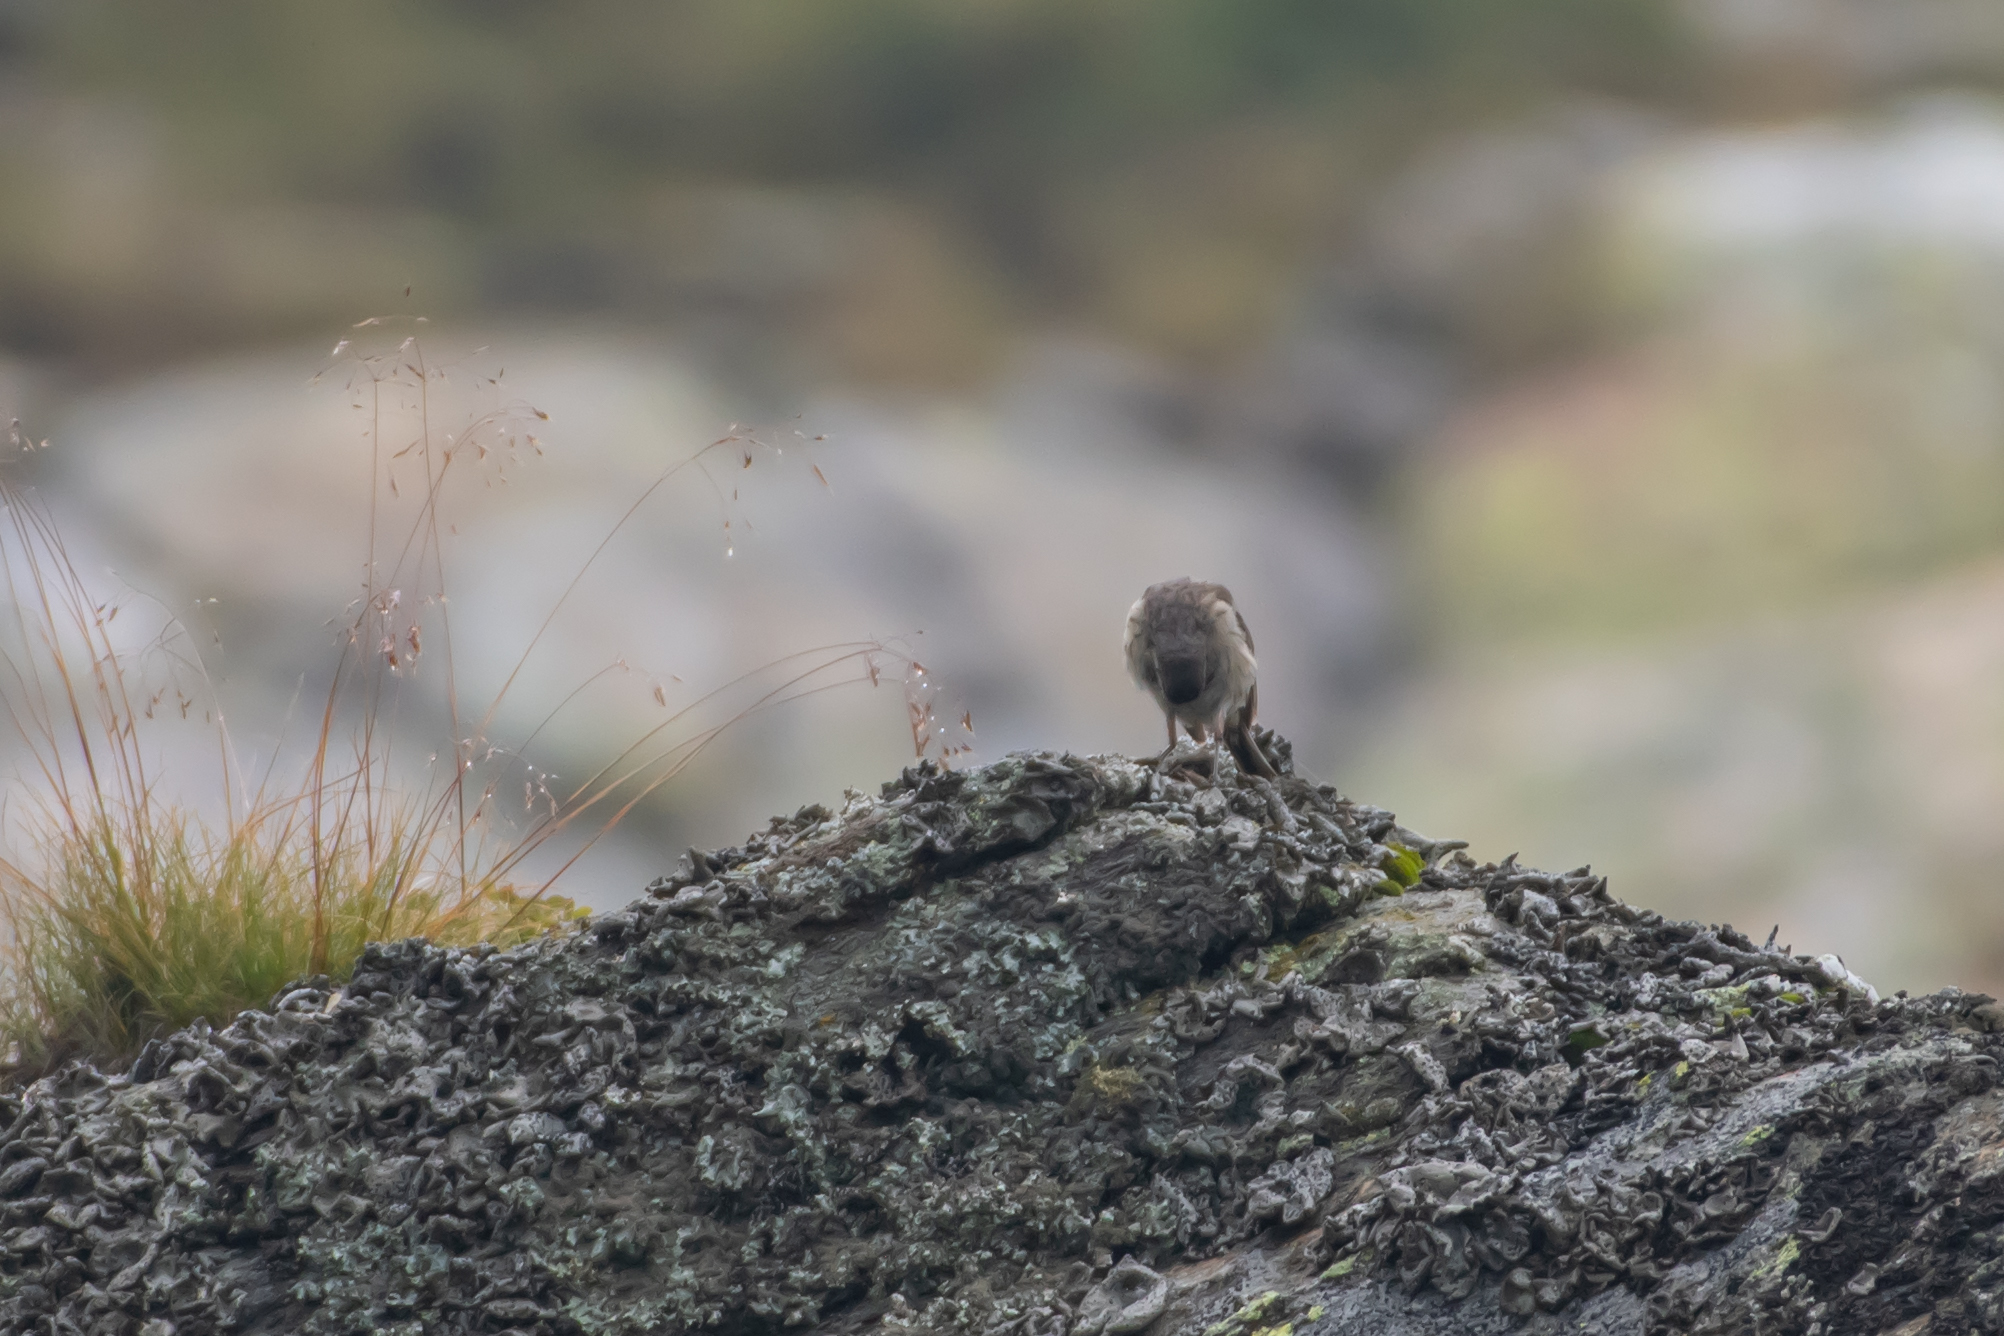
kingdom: Animalia
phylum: Chordata
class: Aves
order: Passeriformes
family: Motacillidae
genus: Anthus
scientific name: Anthus spinoletta
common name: Water pipit
